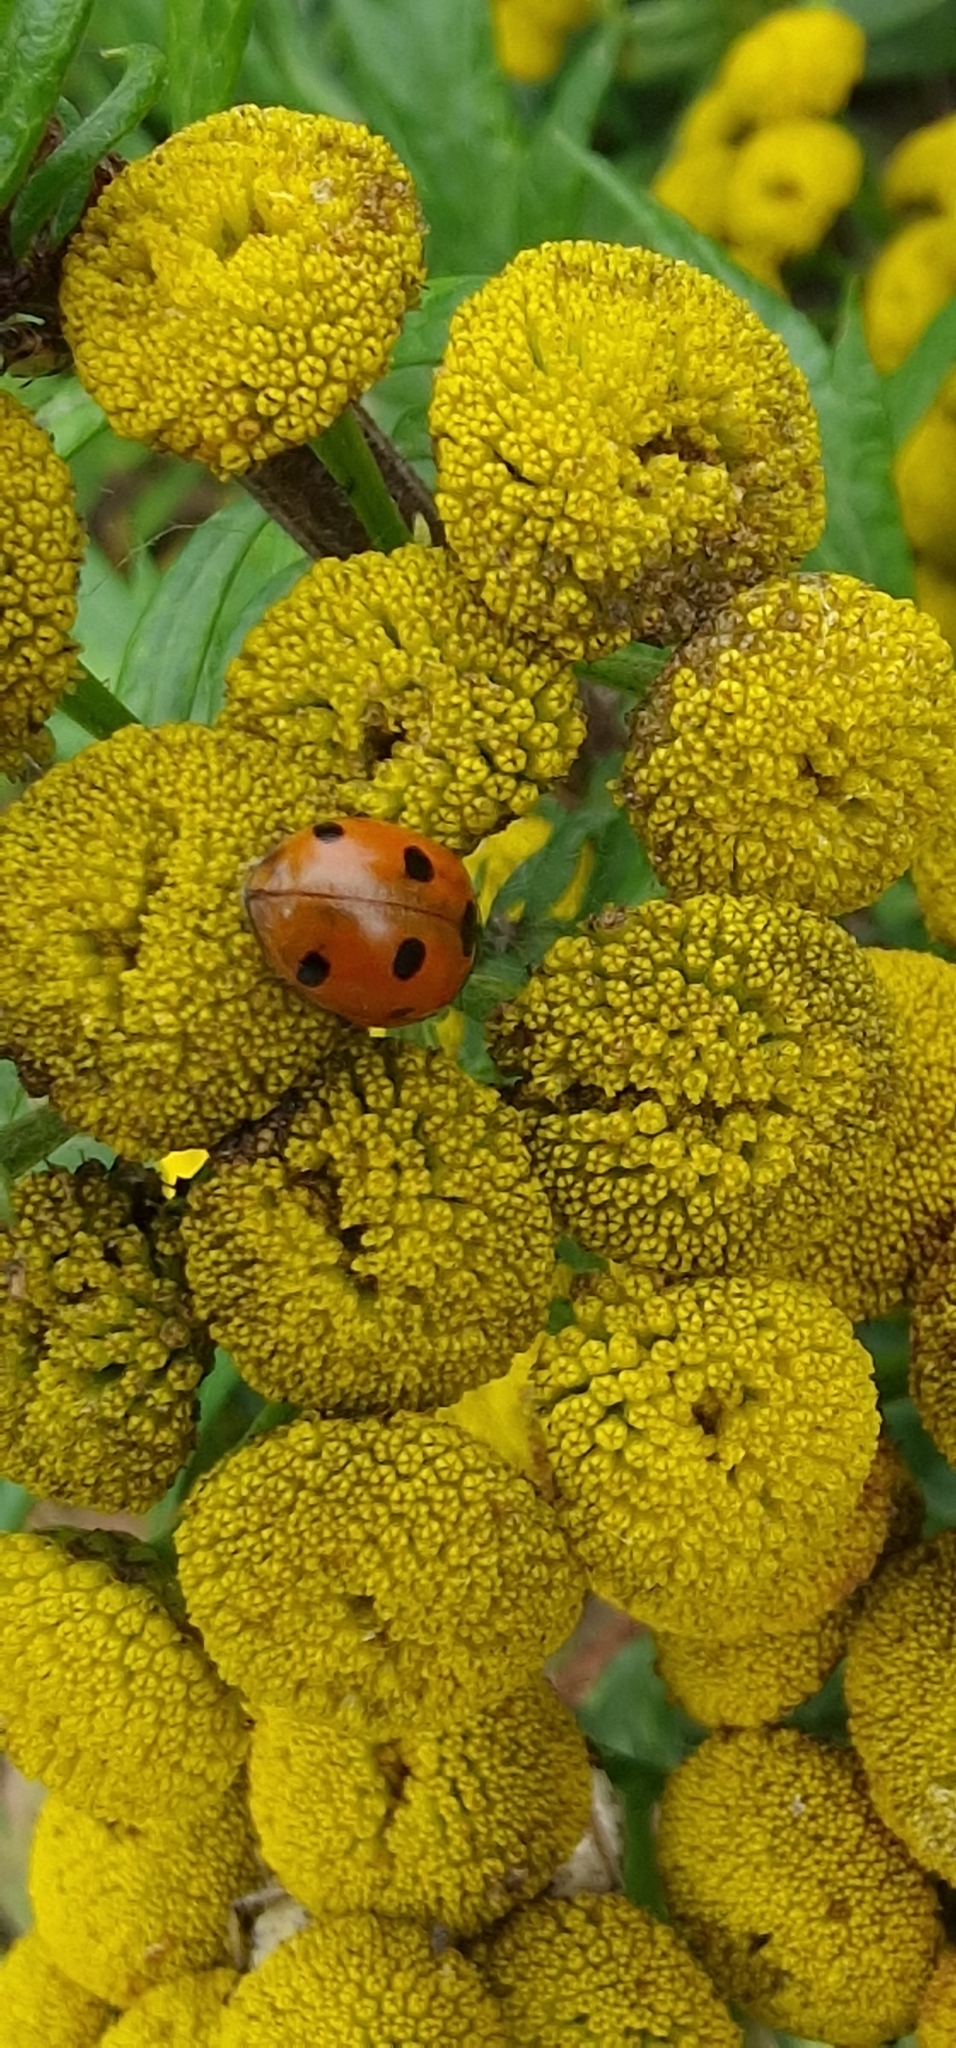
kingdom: Animalia
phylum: Arthropoda
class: Insecta
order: Coleoptera
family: Coccinellidae
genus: Coccinella
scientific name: Coccinella septempunctata
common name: Sevenspotted lady beetle
